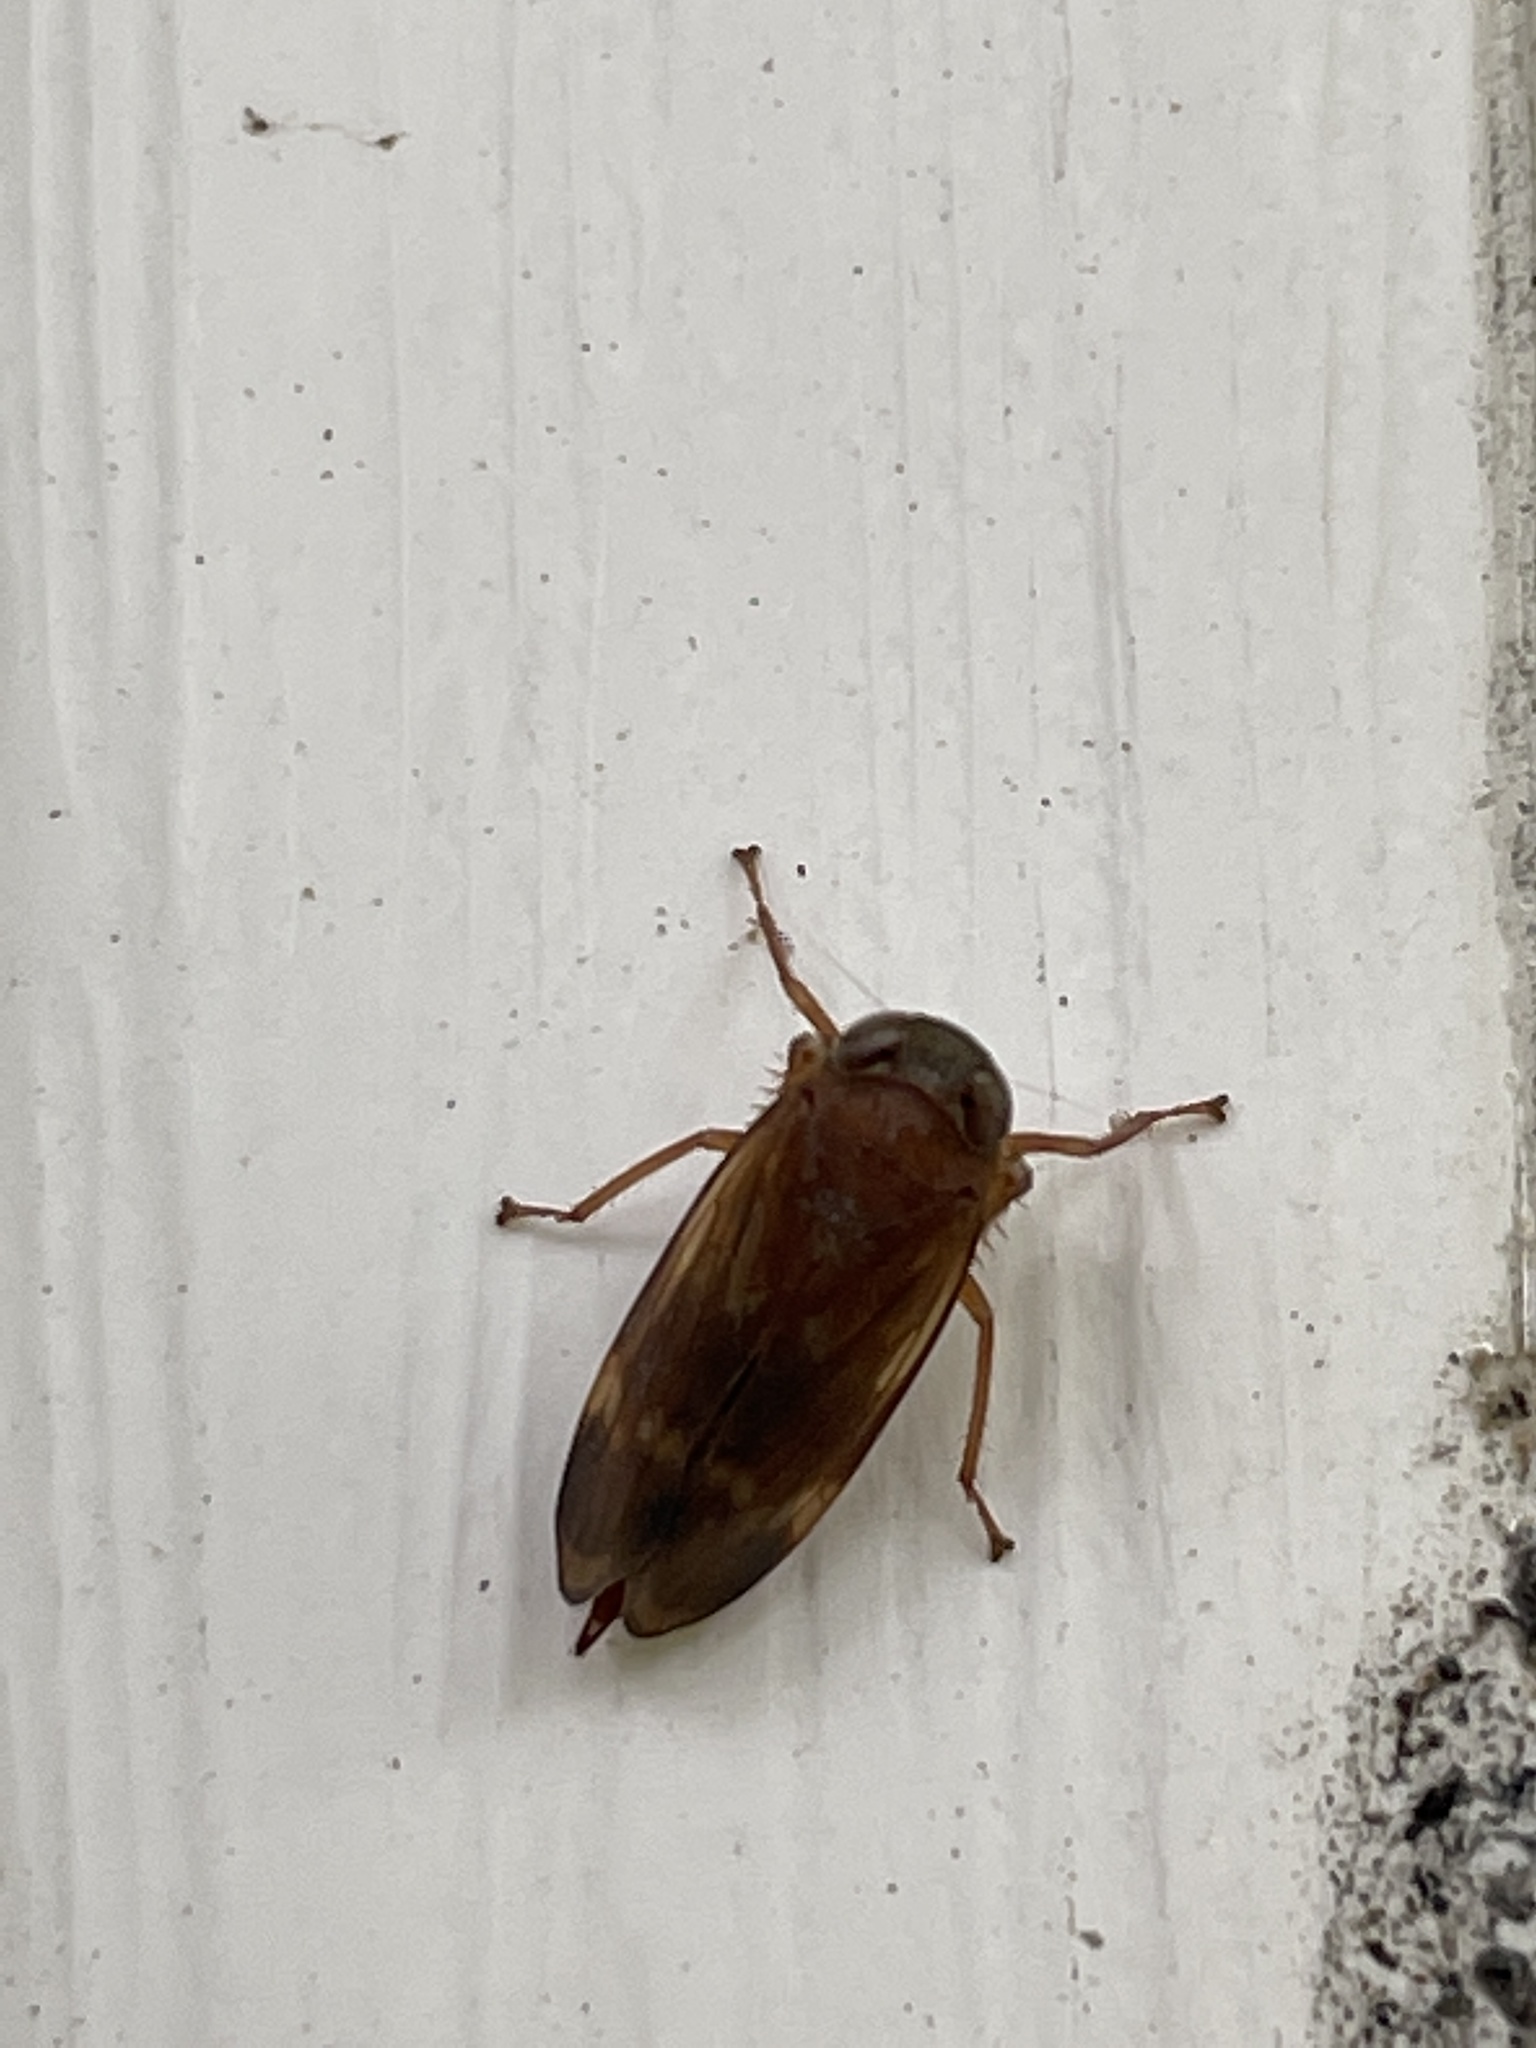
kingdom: Animalia
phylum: Arthropoda
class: Insecta
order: Hemiptera
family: Cicadellidae
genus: Jikradia
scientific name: Jikradia olitoria
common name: Coppery leafhopper
